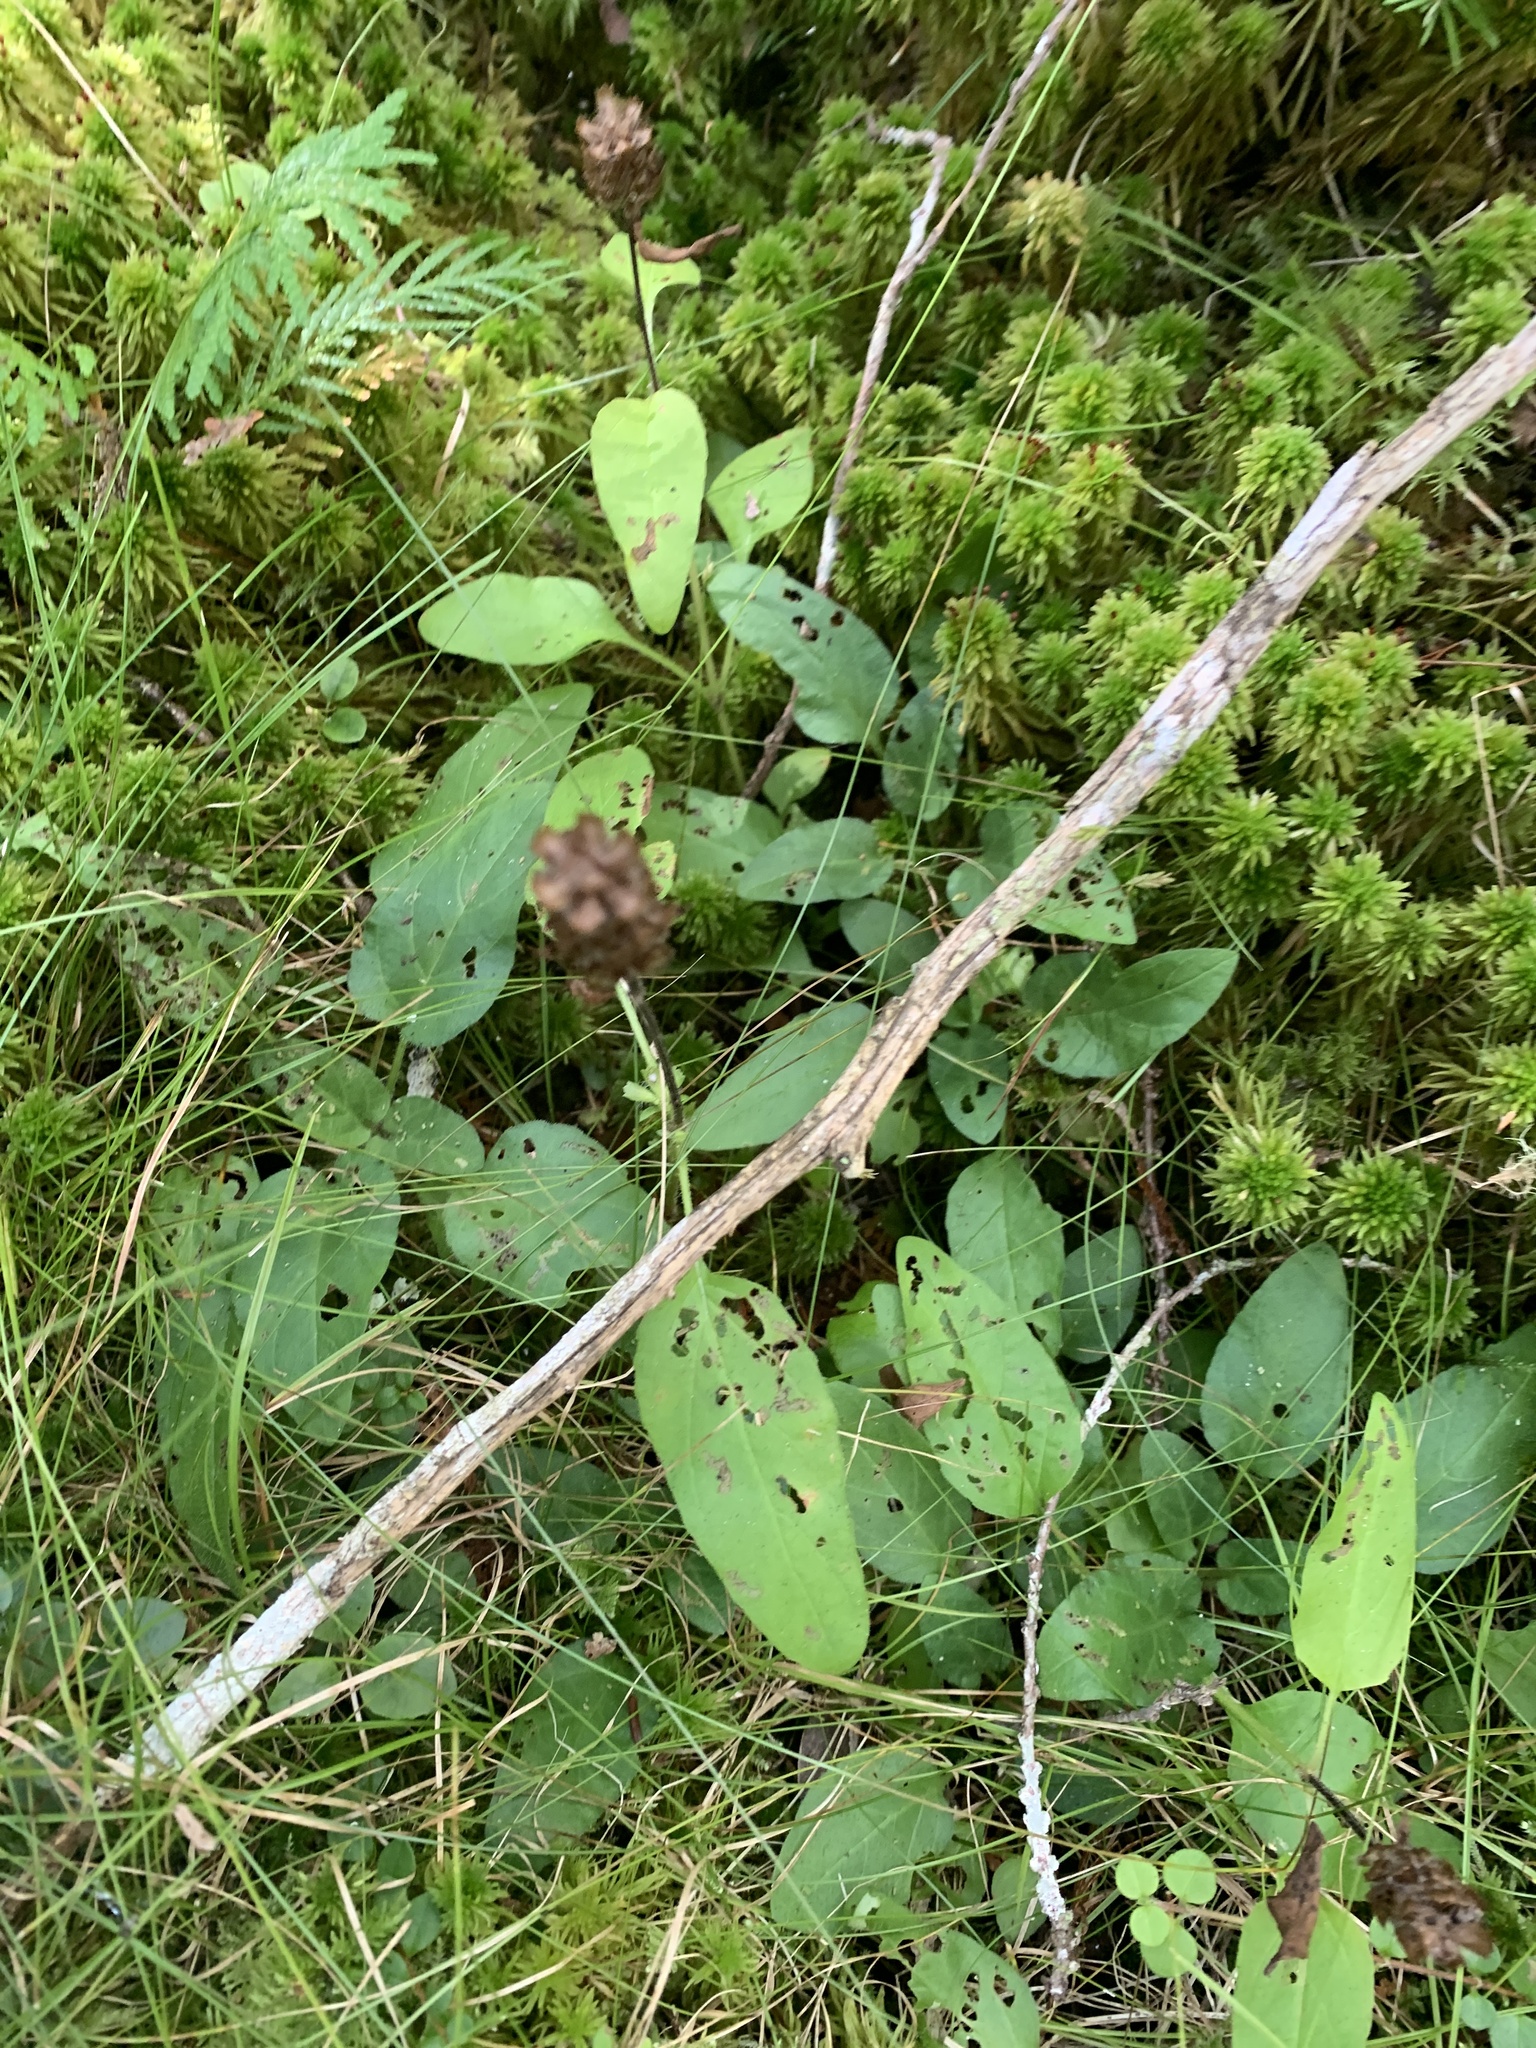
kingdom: Plantae
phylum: Tracheophyta
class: Magnoliopsida
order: Lamiales
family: Lamiaceae
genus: Prunella
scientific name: Prunella vulgaris
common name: Heal-all
